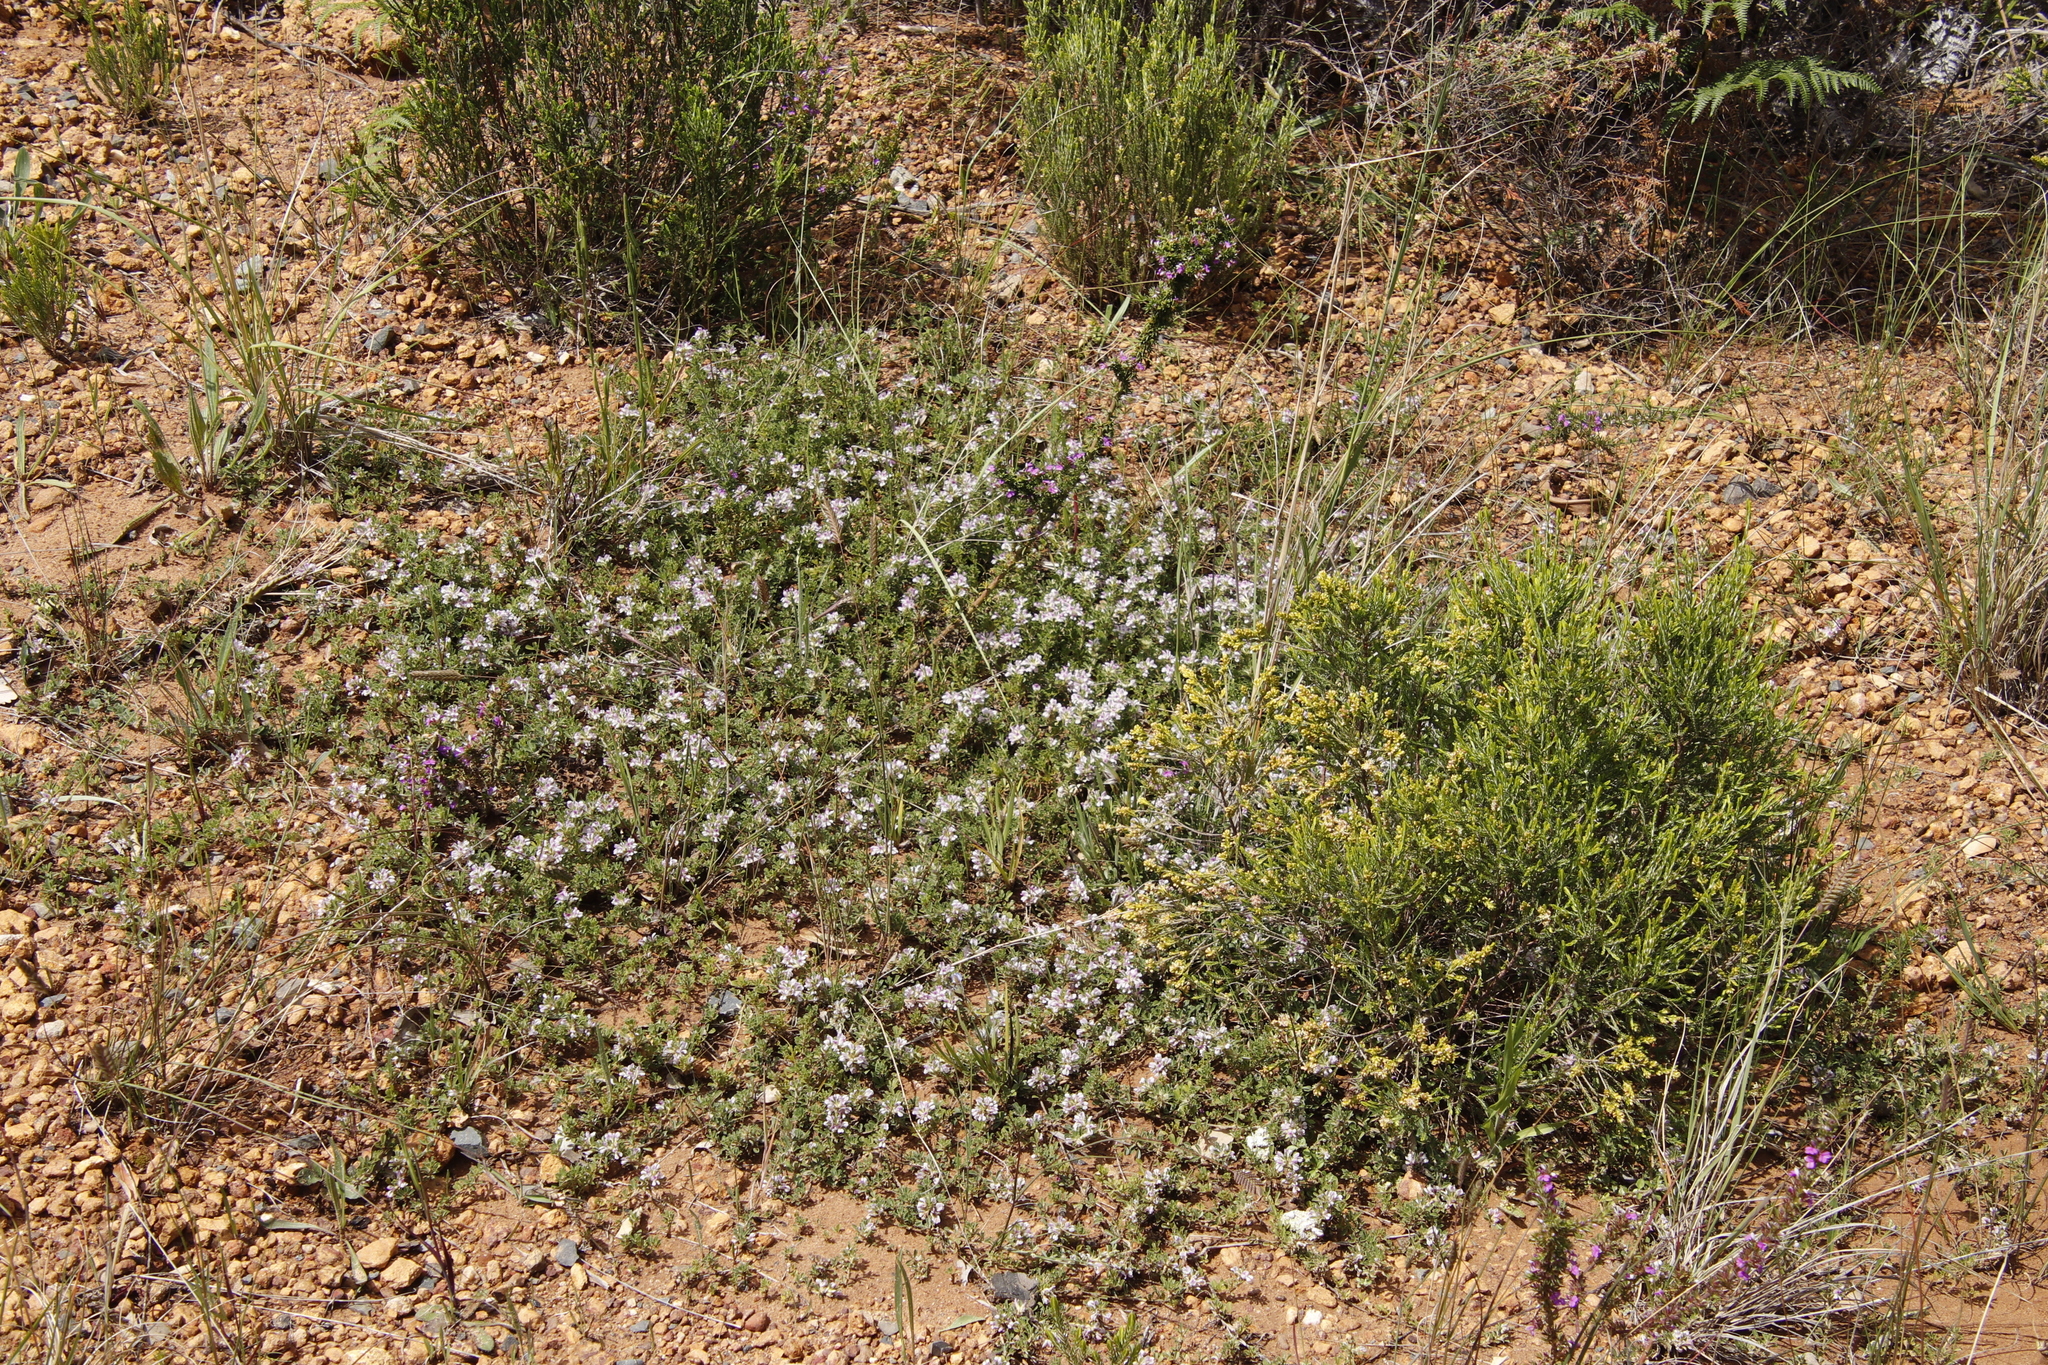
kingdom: Plantae
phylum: Tracheophyta
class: Magnoliopsida
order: Fabales
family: Fabaceae
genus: Psoralea
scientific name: Psoralea
